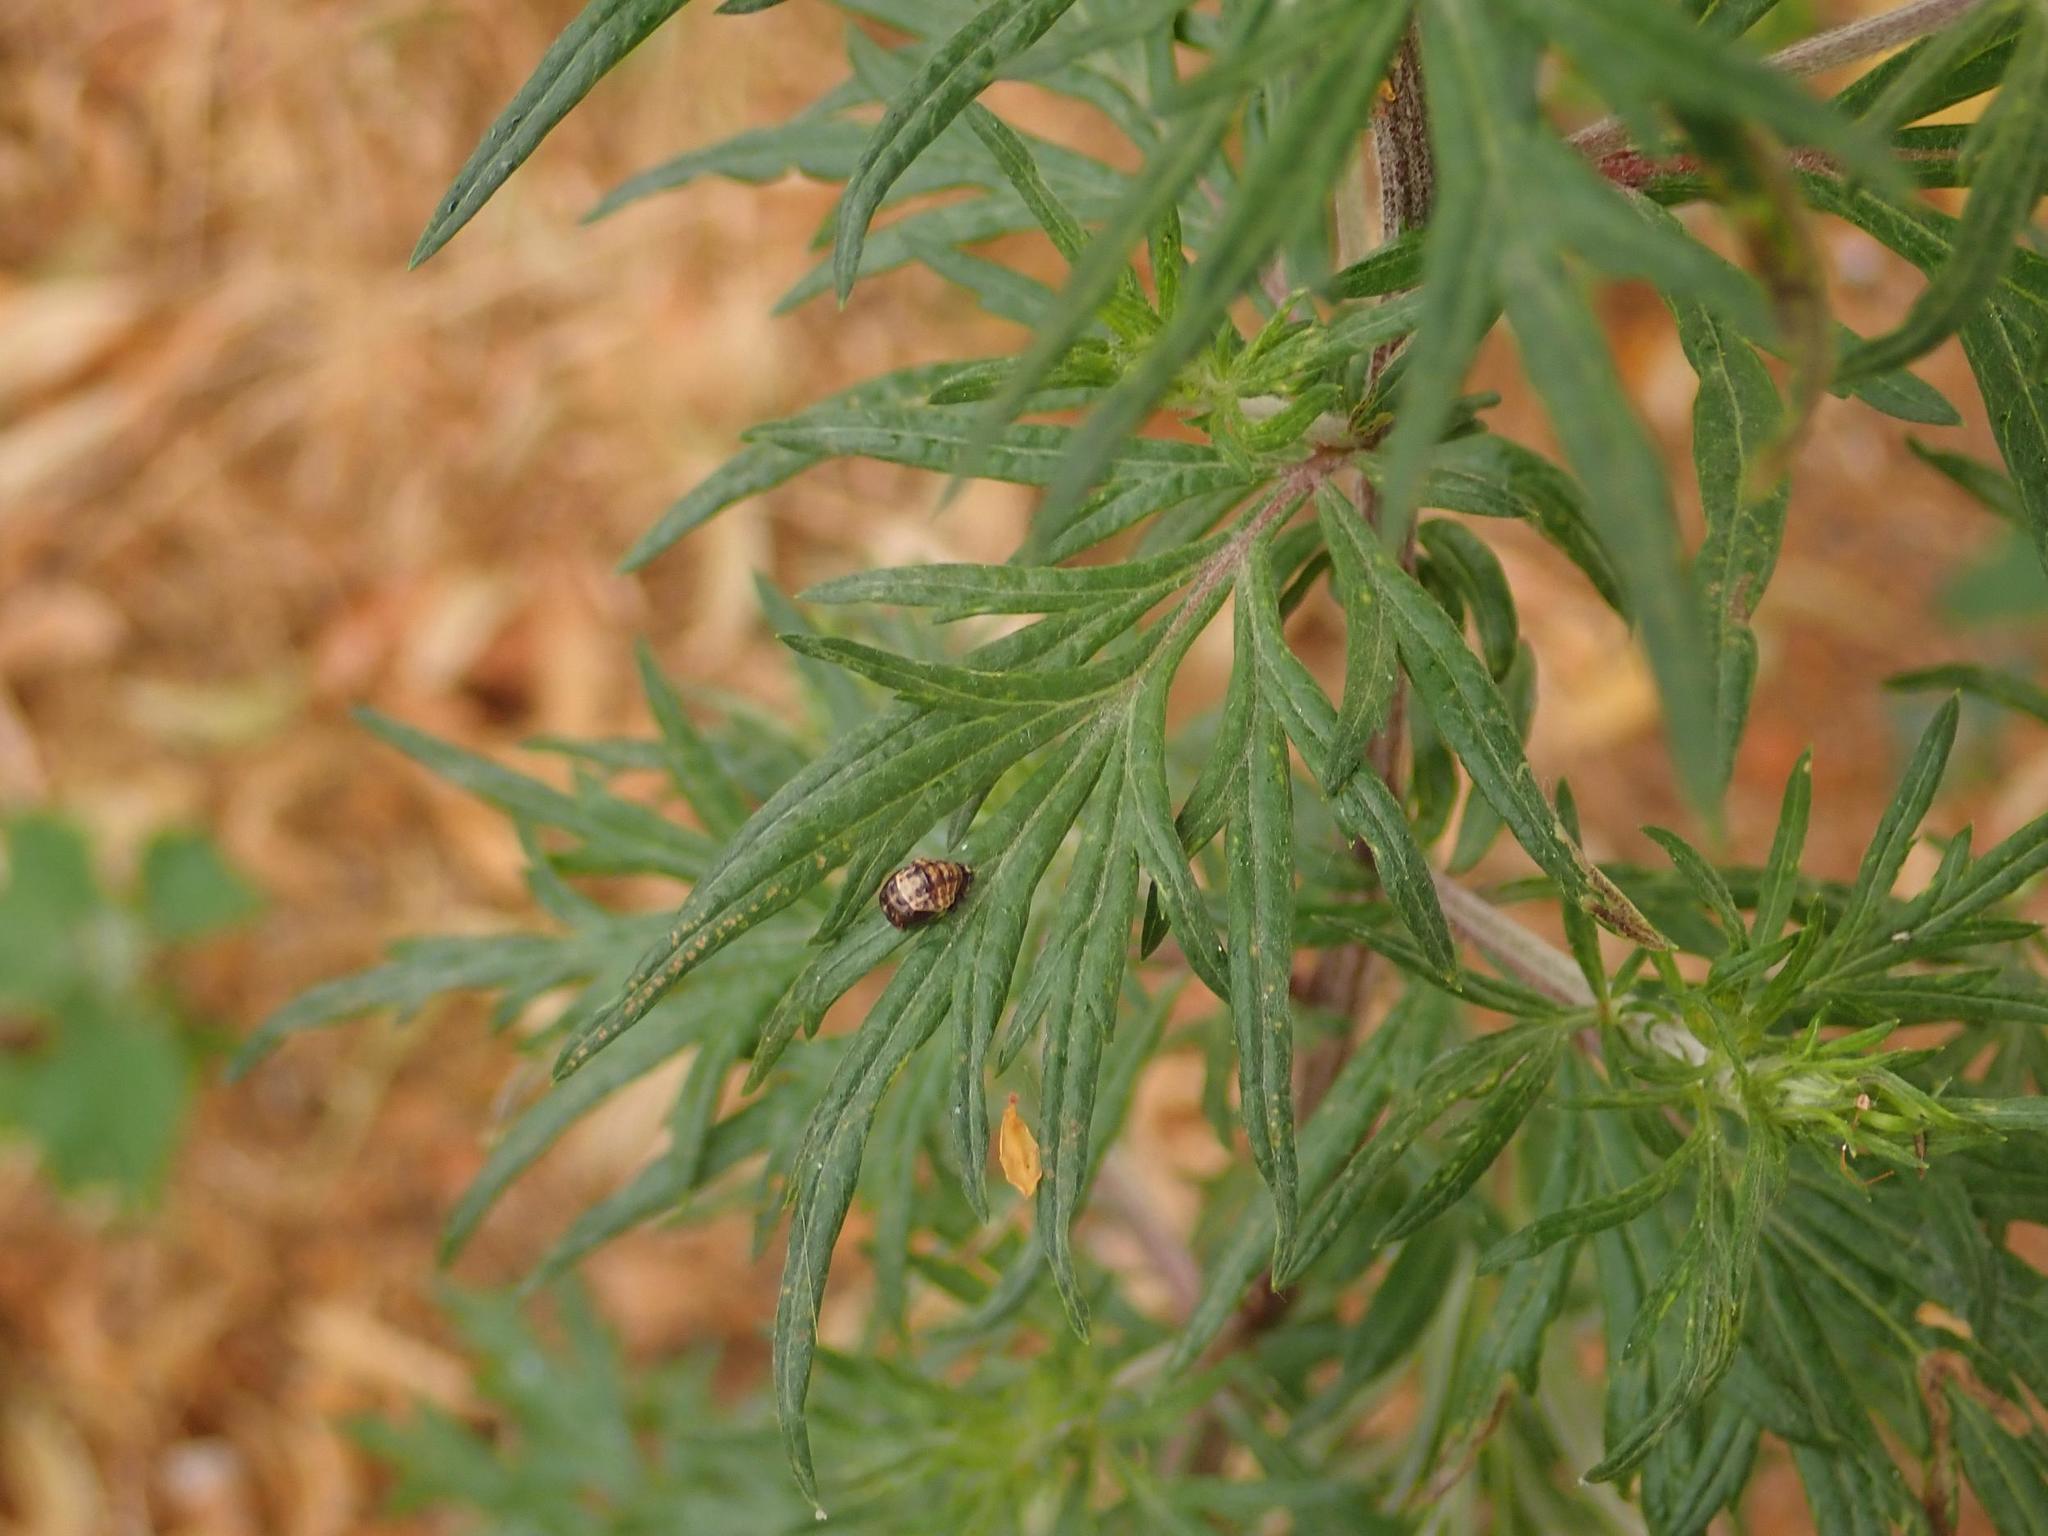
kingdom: Plantae
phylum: Tracheophyta
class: Magnoliopsida
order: Asterales
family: Asteraceae
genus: Artemisia
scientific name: Artemisia vulgaris
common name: Mugwort
